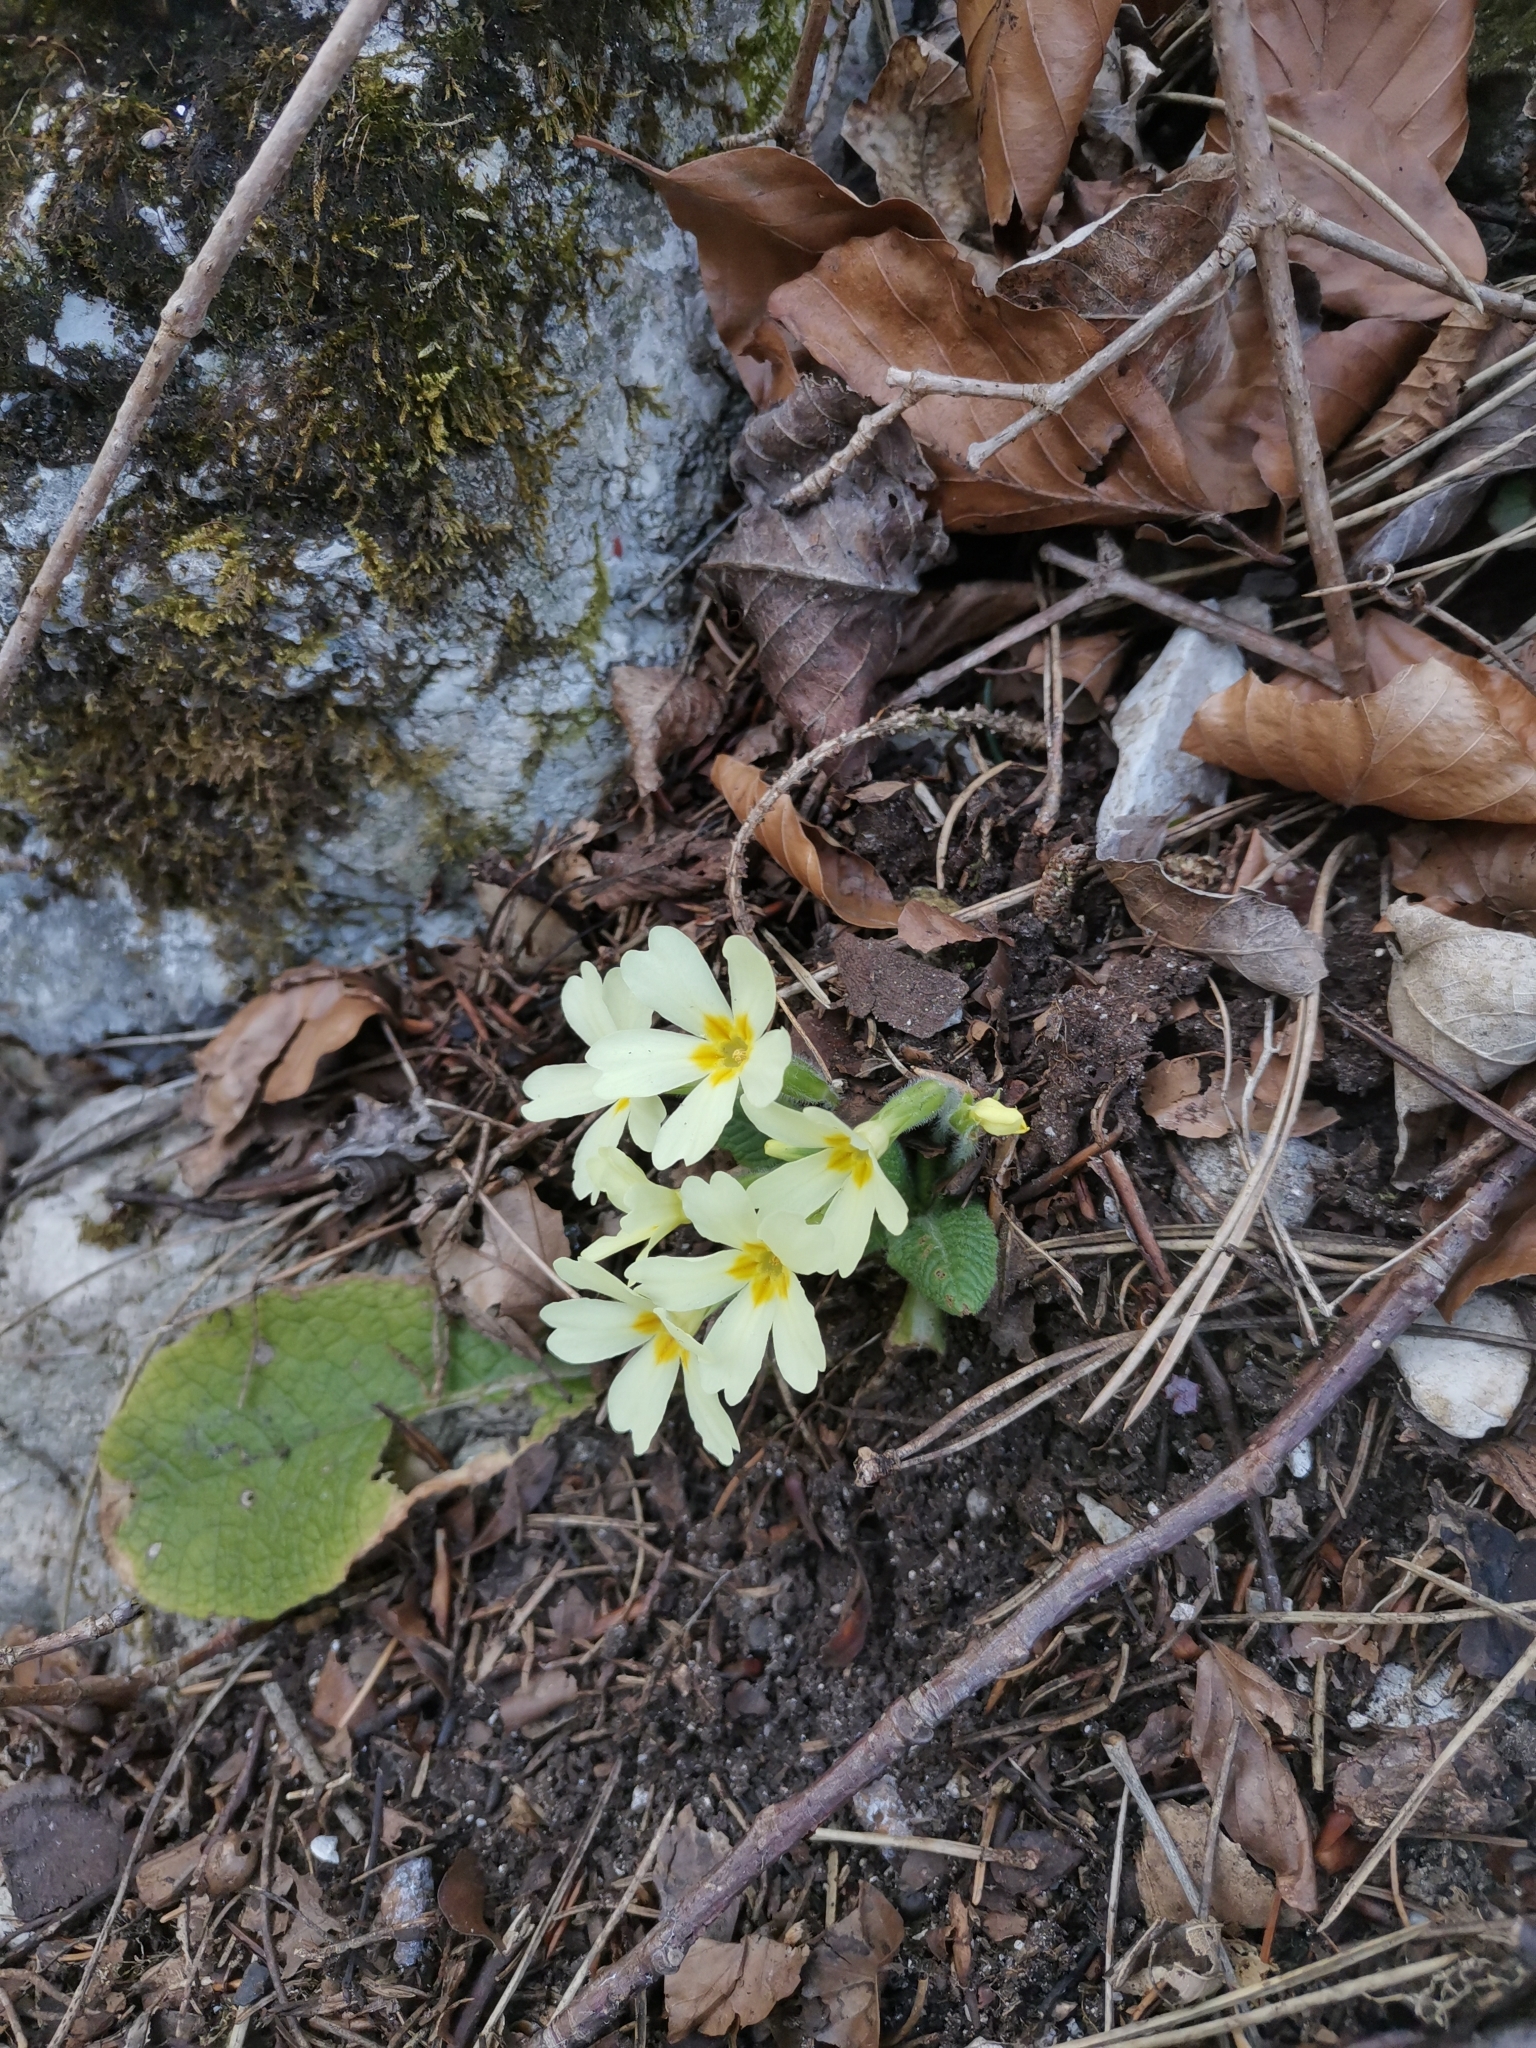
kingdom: Plantae
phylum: Tracheophyta
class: Magnoliopsida
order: Ericales
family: Primulaceae
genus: Primula
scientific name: Primula vulgaris
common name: Primrose
